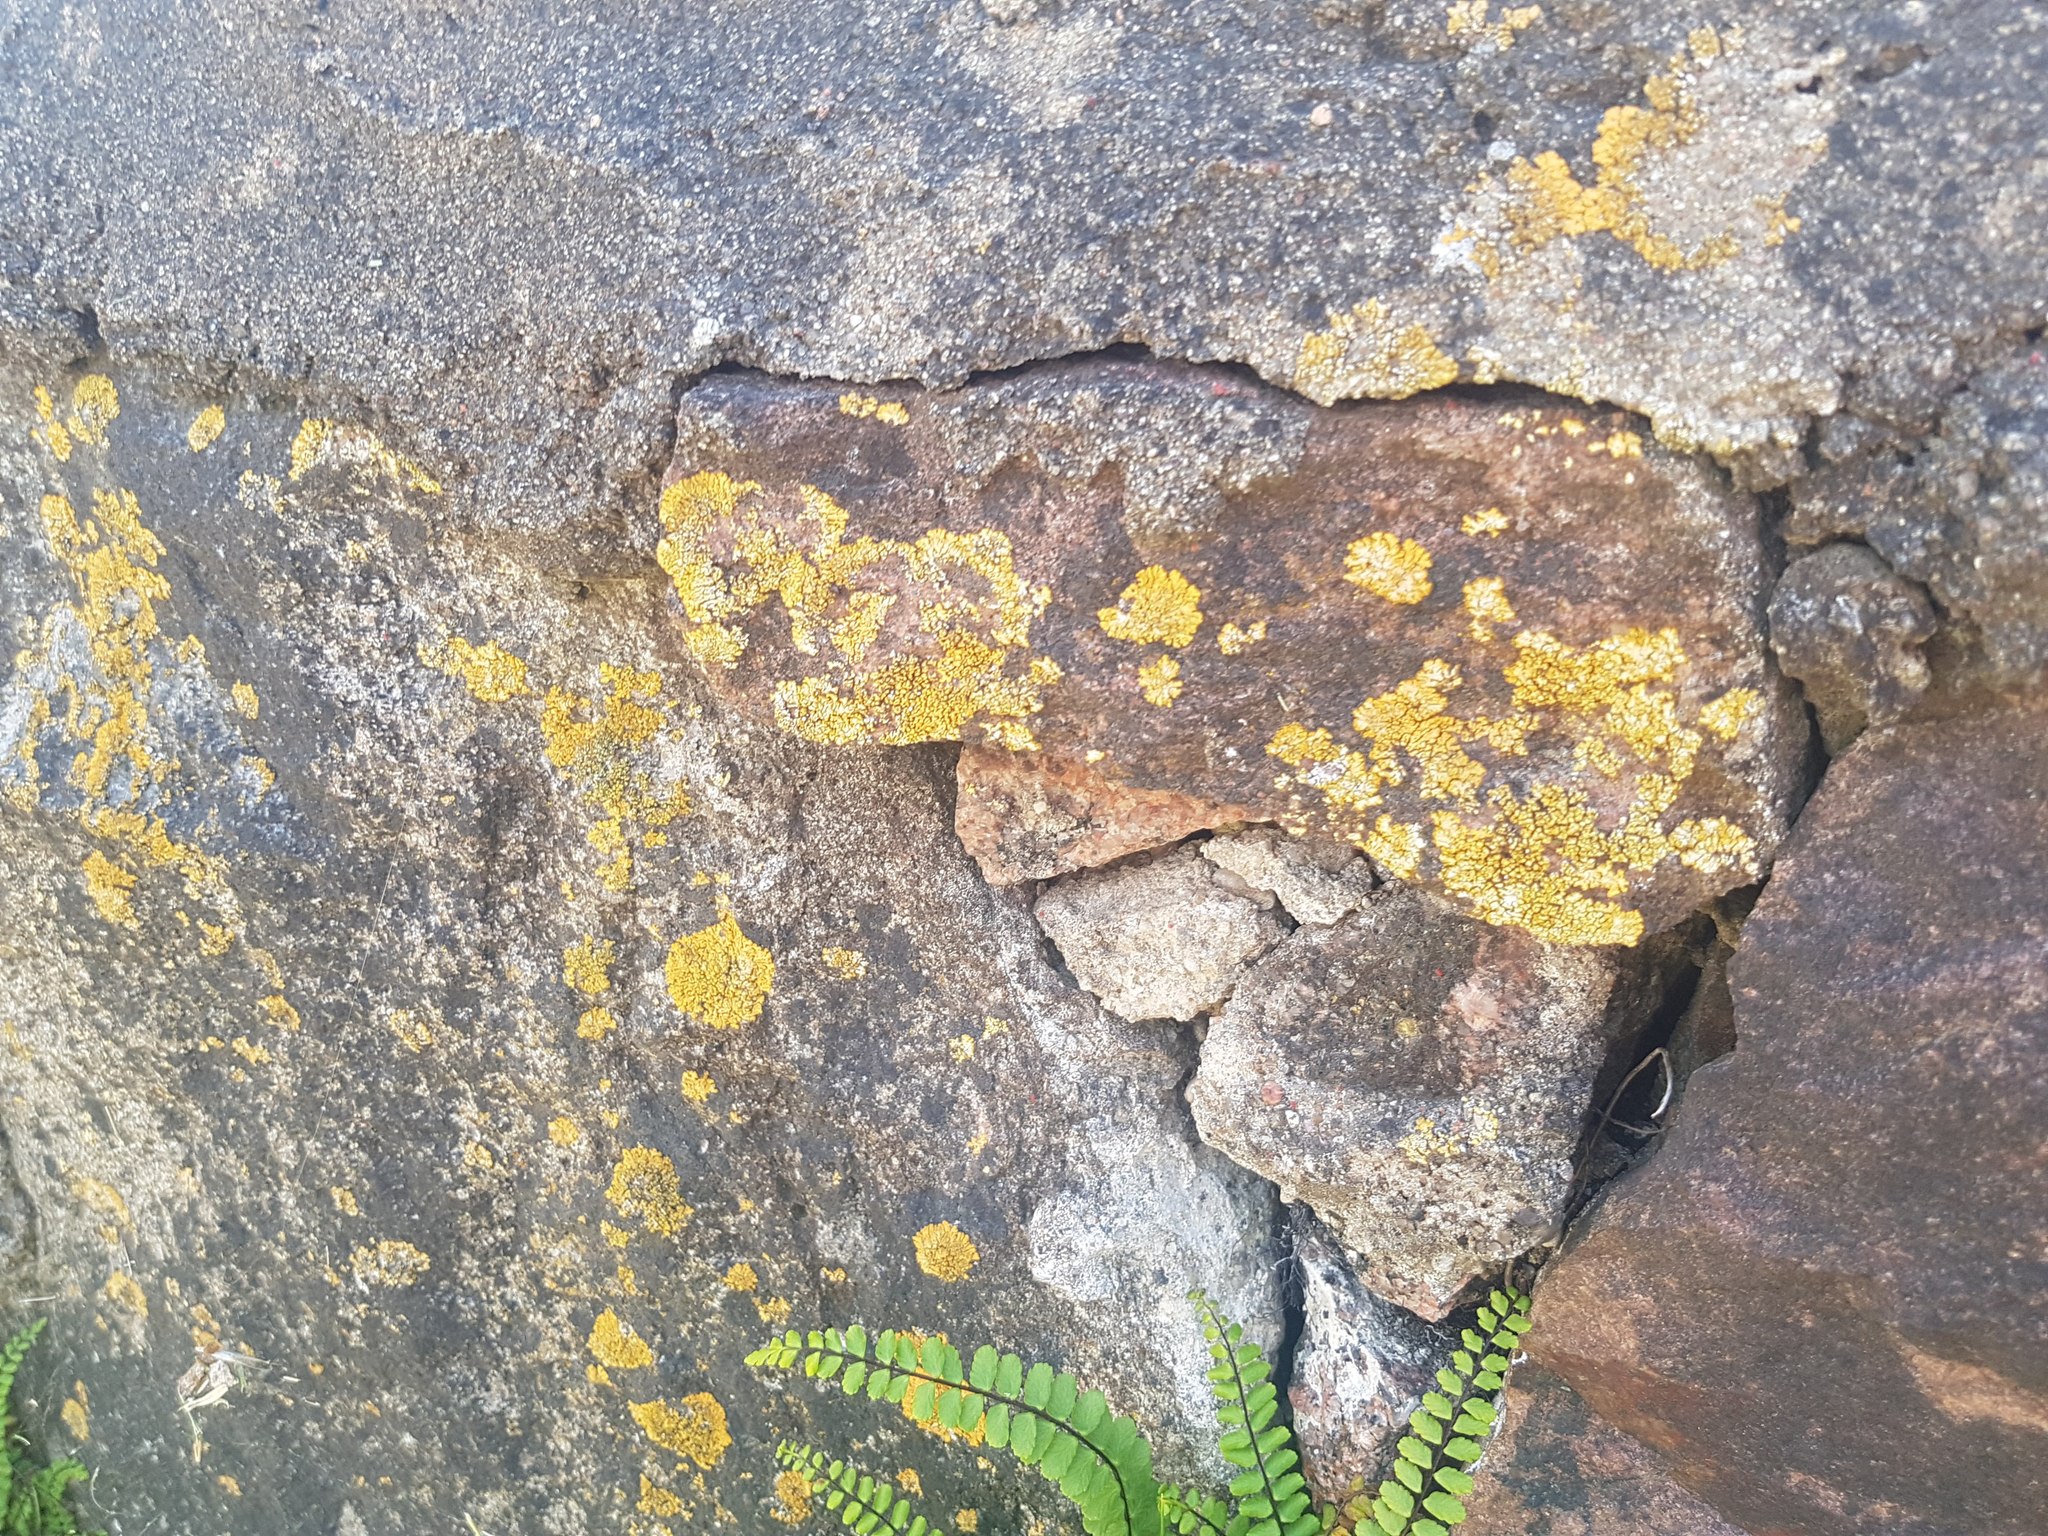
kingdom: Fungi
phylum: Ascomycota
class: Lecanoromycetes
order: Teloschistales
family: Teloschistaceae
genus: Calogaya
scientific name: Calogaya decipiens
